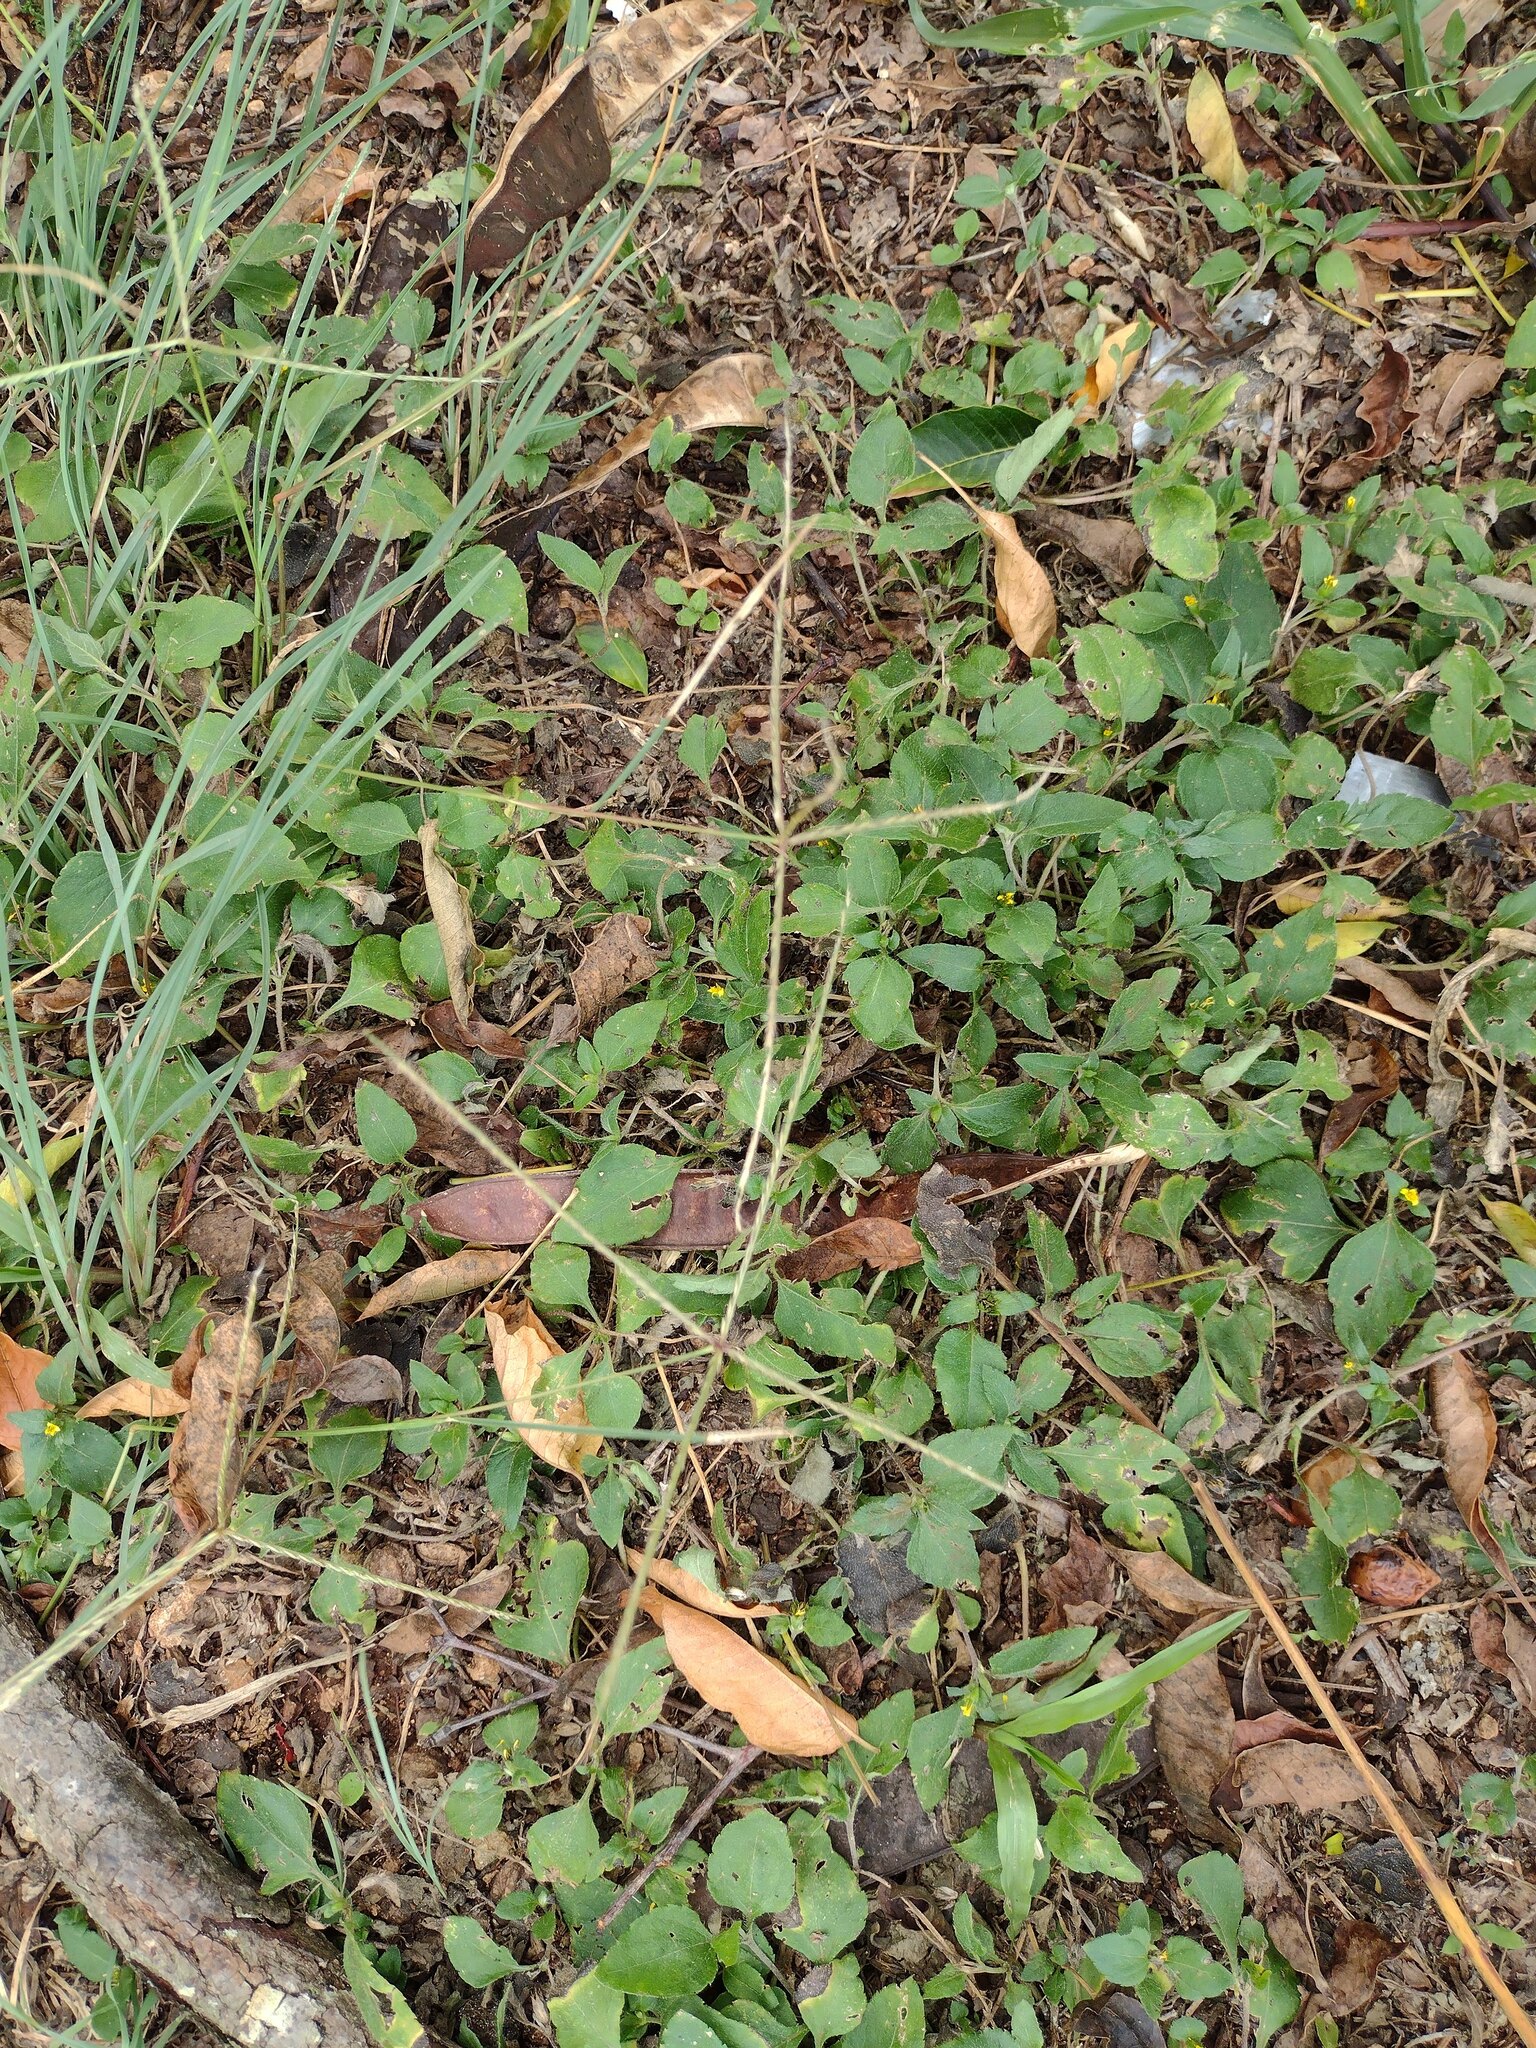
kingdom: Plantae
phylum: Tracheophyta
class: Liliopsida
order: Poales
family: Poaceae
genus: Chloris
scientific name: Chloris divaricata
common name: Spreading windmill grass
